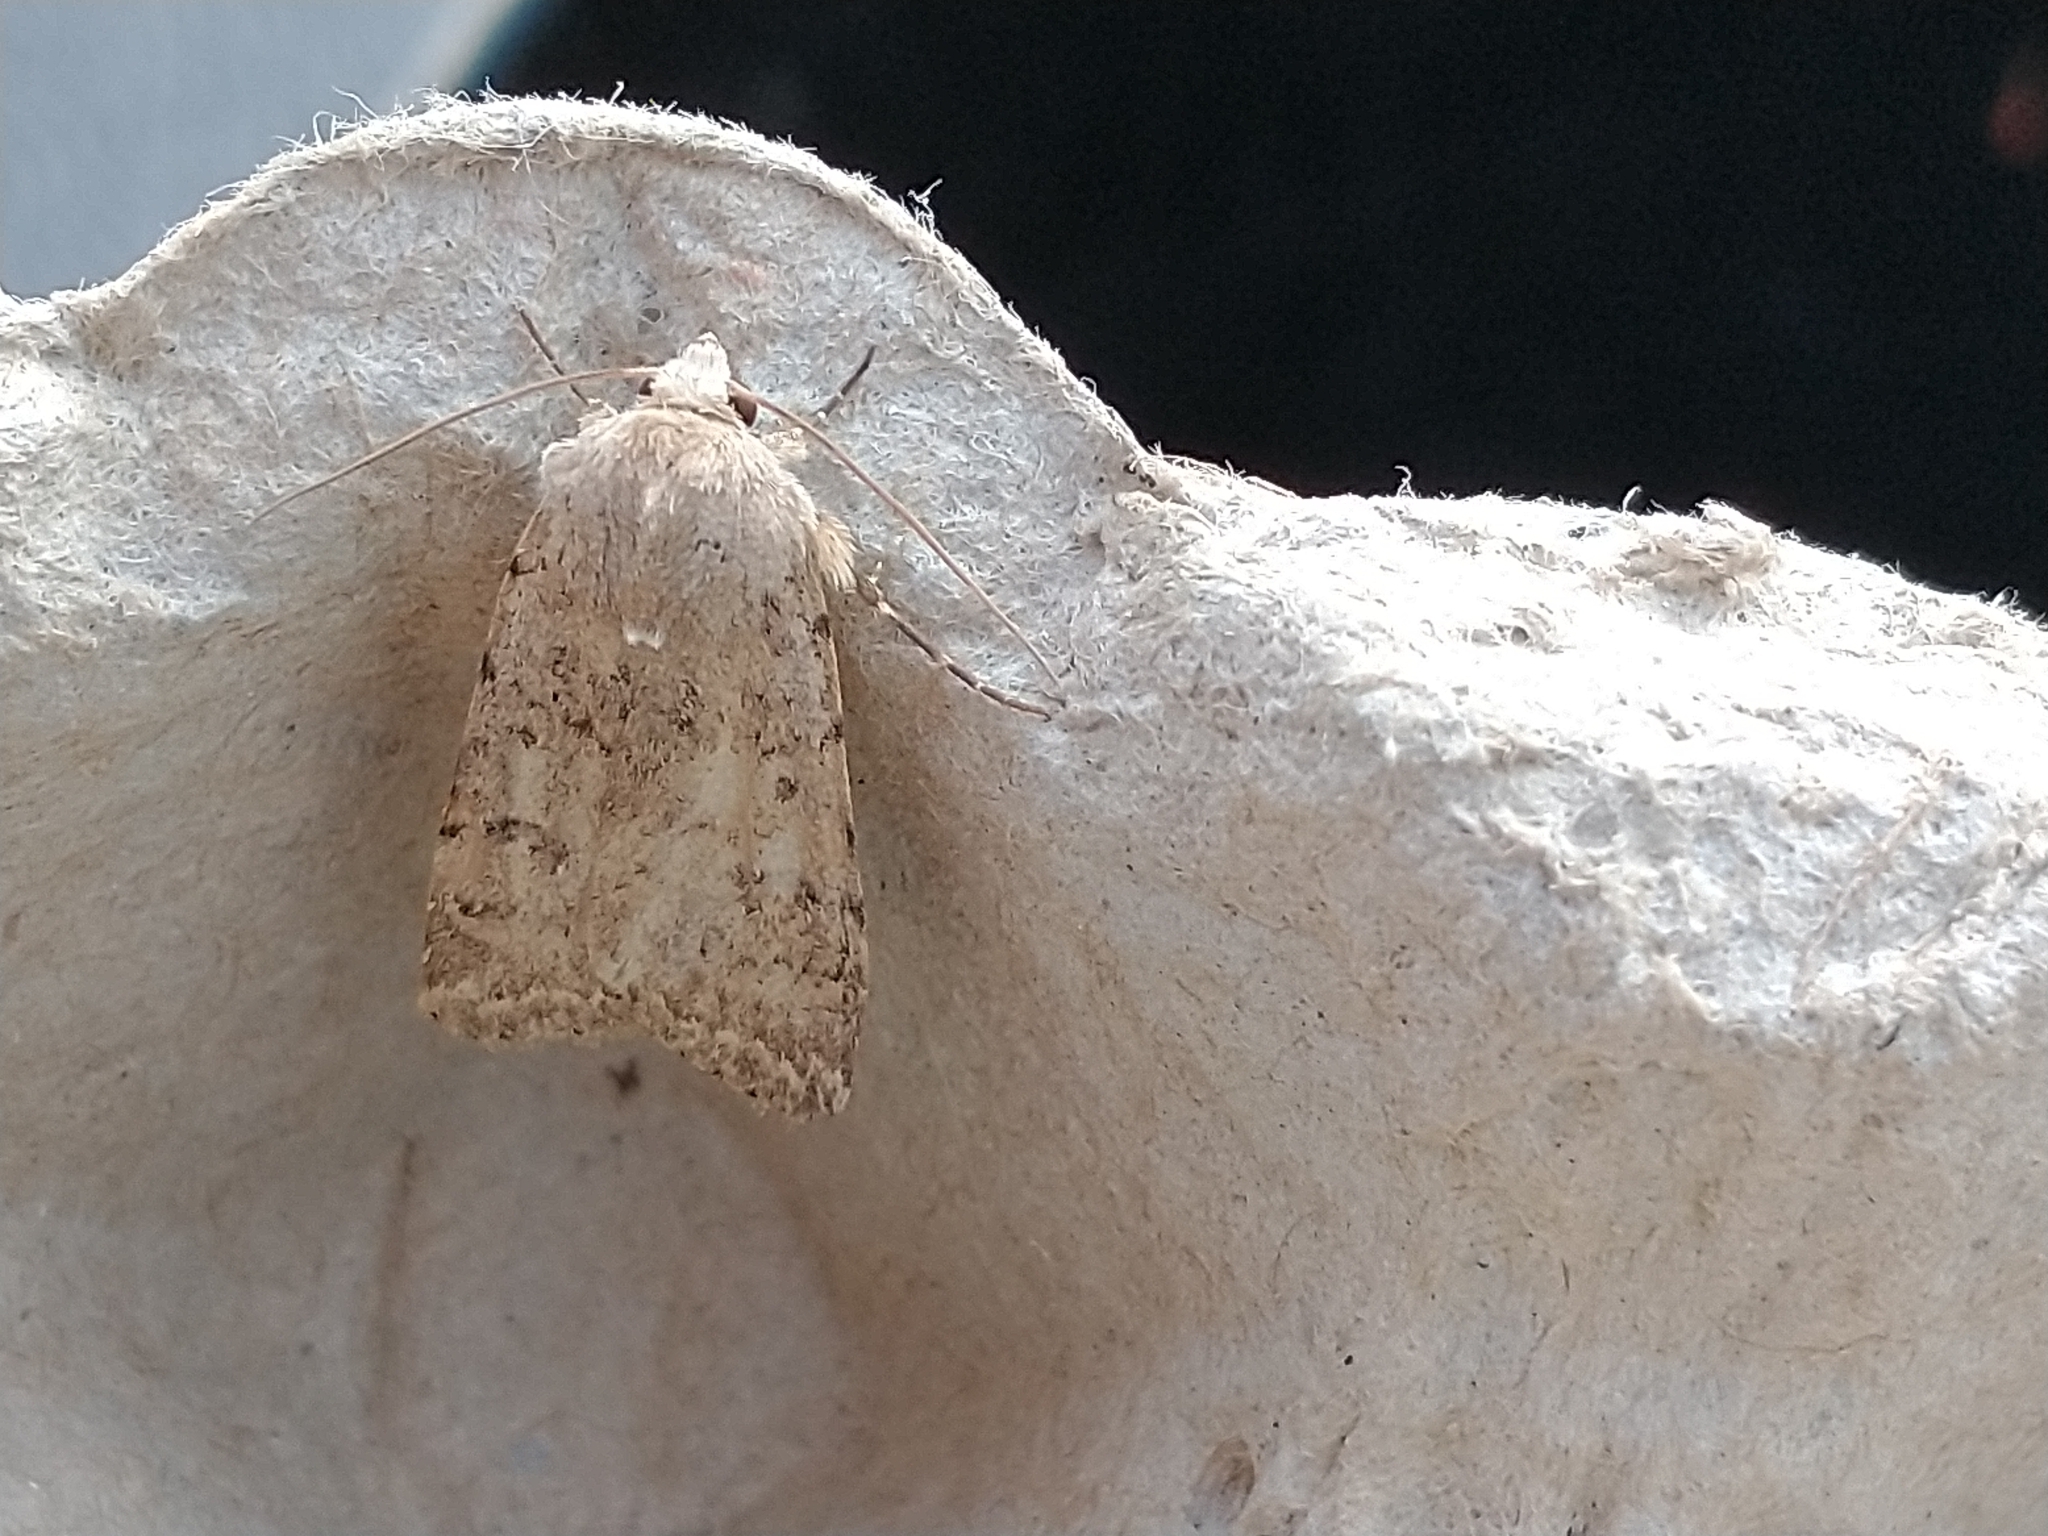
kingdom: Animalia
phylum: Arthropoda
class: Insecta
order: Lepidoptera
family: Noctuidae
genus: Caradrina
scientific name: Caradrina clavipalpis
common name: Pale mottled willow
